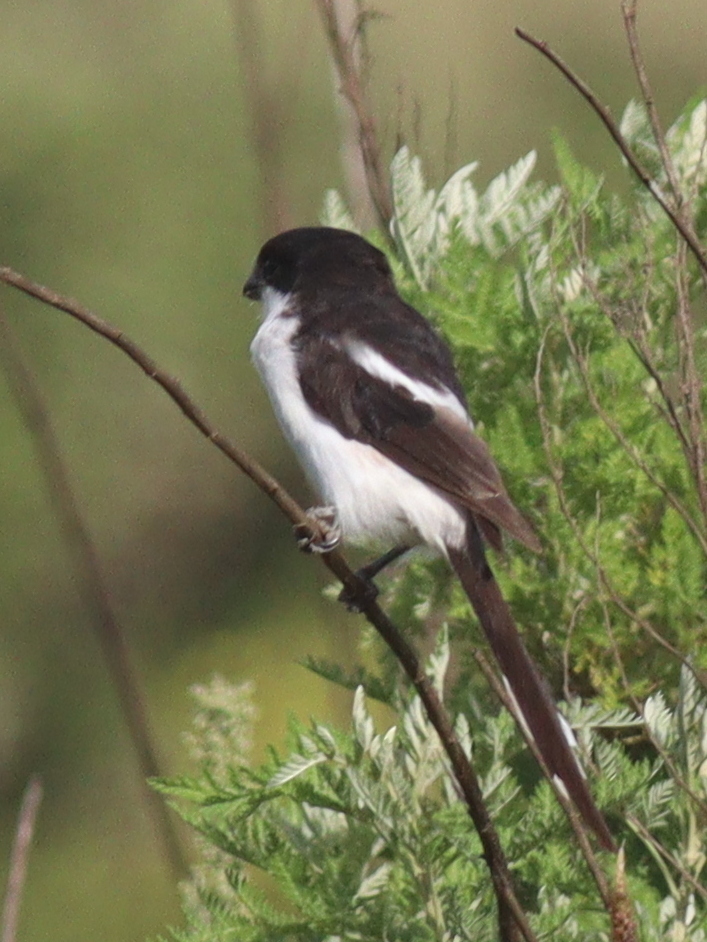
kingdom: Animalia
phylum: Chordata
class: Aves
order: Passeriformes
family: Laniidae
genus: Lanius
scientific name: Lanius humeralis
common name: Northern fiscal
